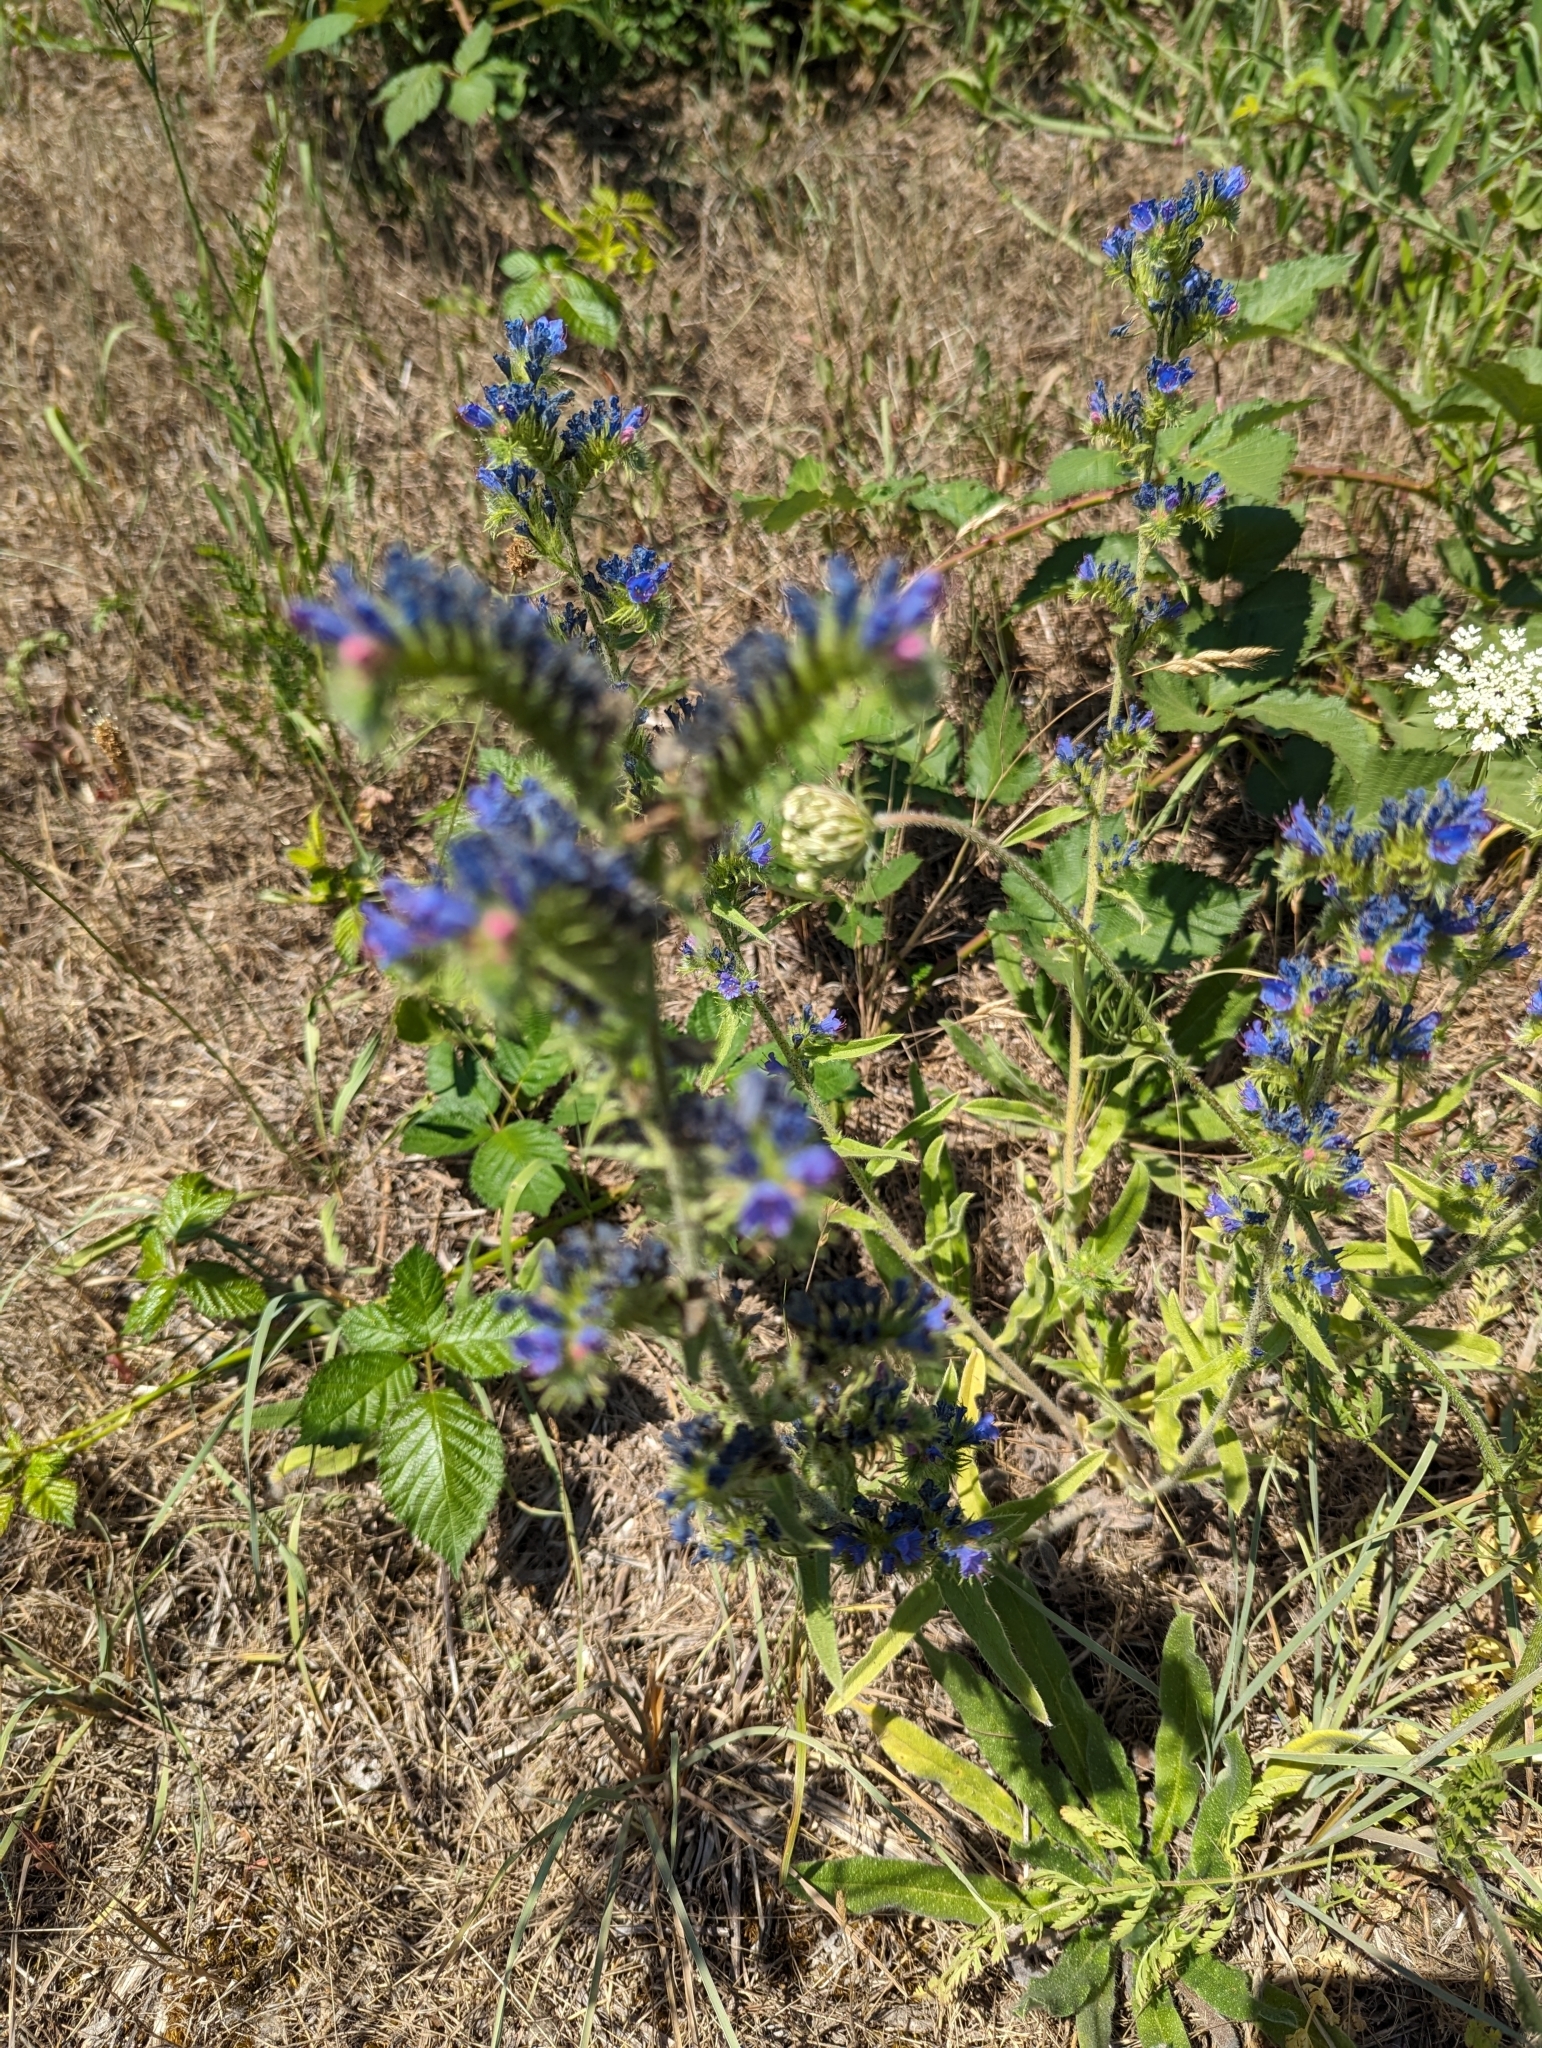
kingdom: Plantae
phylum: Tracheophyta
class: Magnoliopsida
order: Boraginales
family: Boraginaceae
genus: Echium
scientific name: Echium vulgare
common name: Common viper's bugloss
